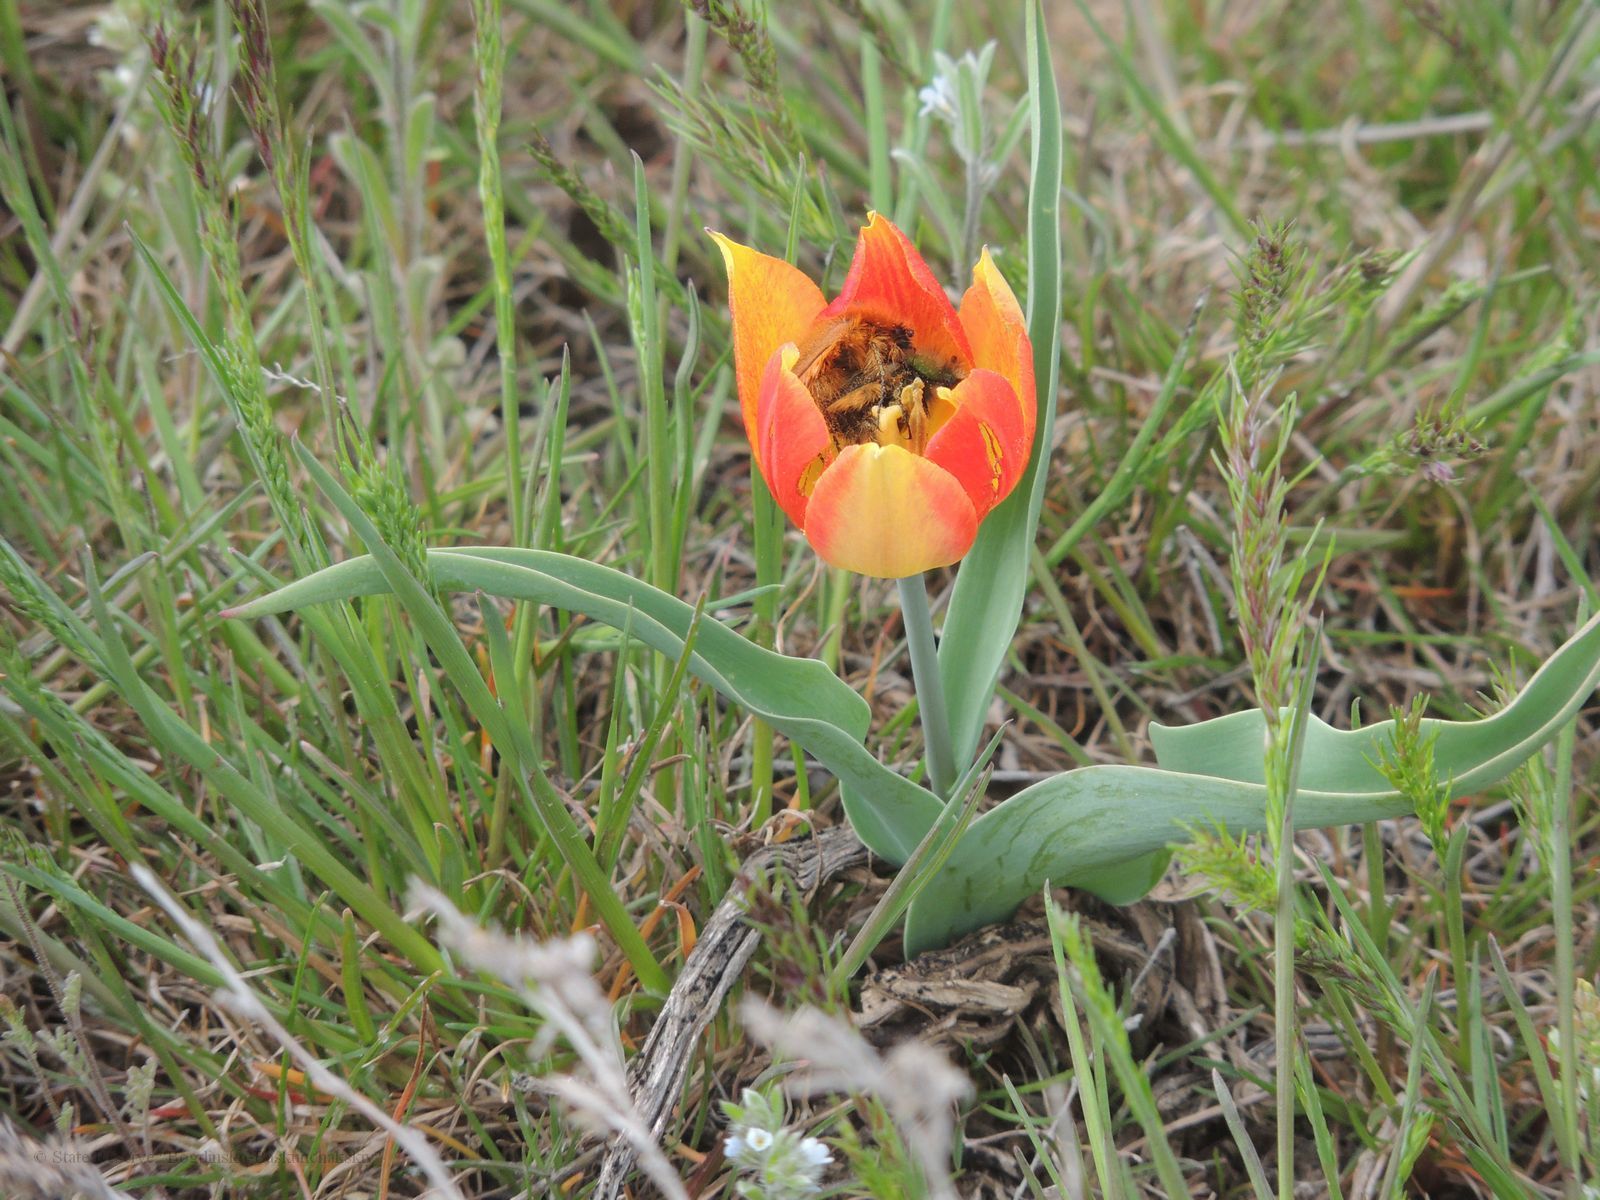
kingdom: Plantae
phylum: Tracheophyta
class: Liliopsida
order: Liliales
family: Liliaceae
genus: Tulipa
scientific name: Tulipa suaveolens
